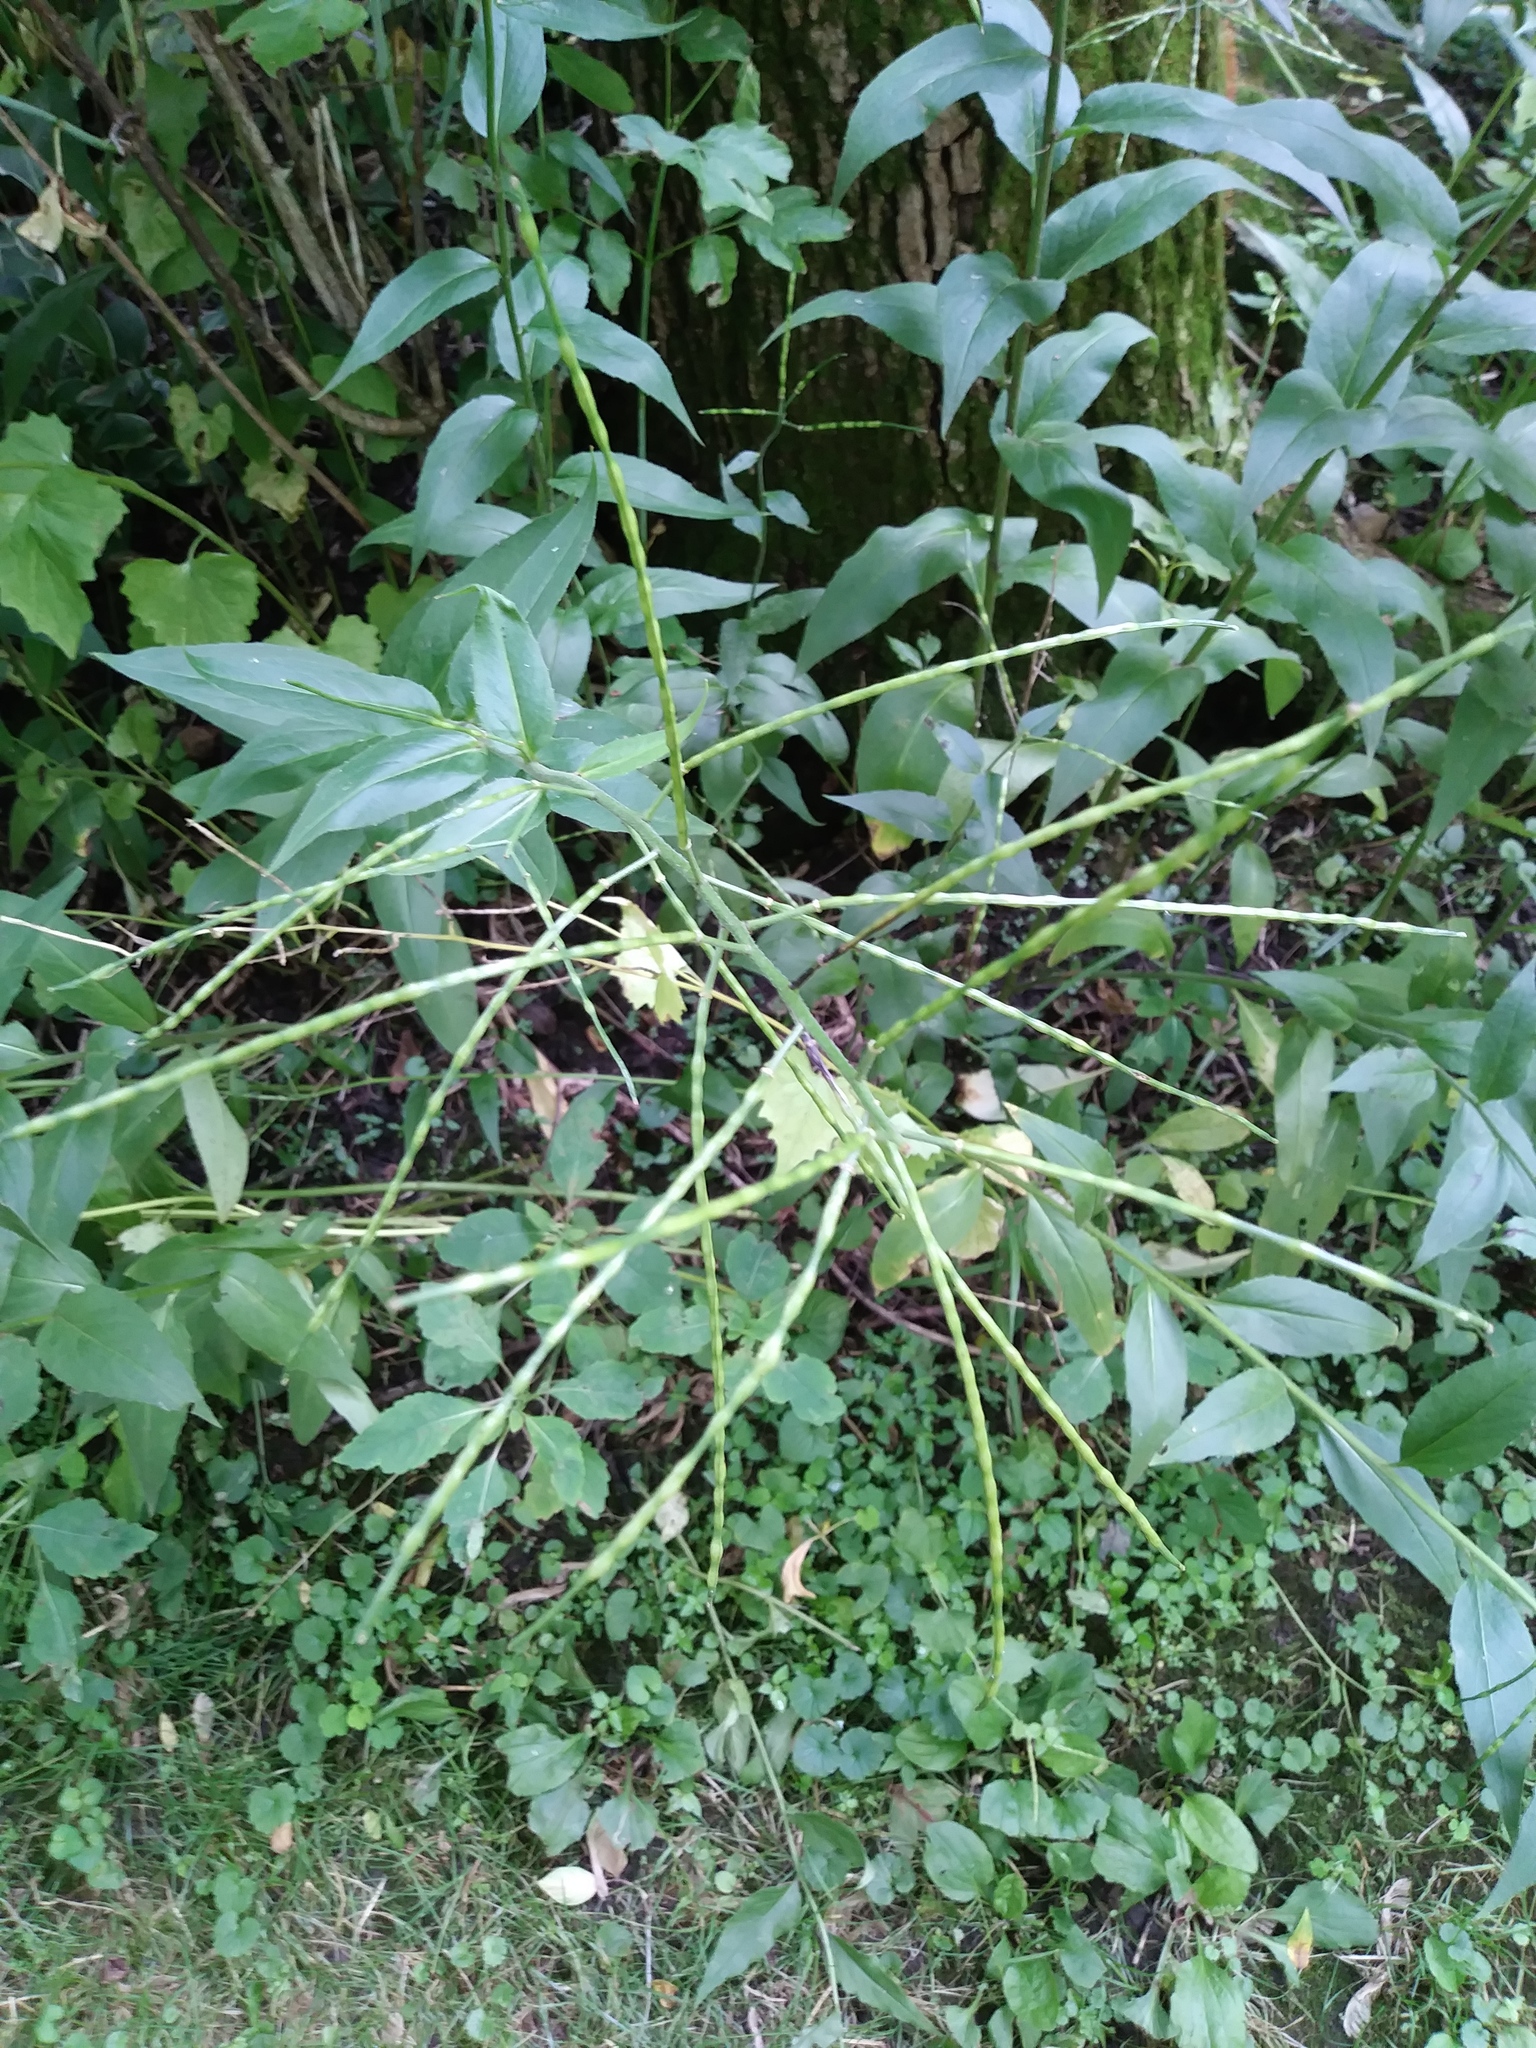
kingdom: Plantae
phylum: Tracheophyta
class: Magnoliopsida
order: Brassicales
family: Brassicaceae
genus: Hesperis
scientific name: Hesperis matronalis
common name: Dame's-violet
